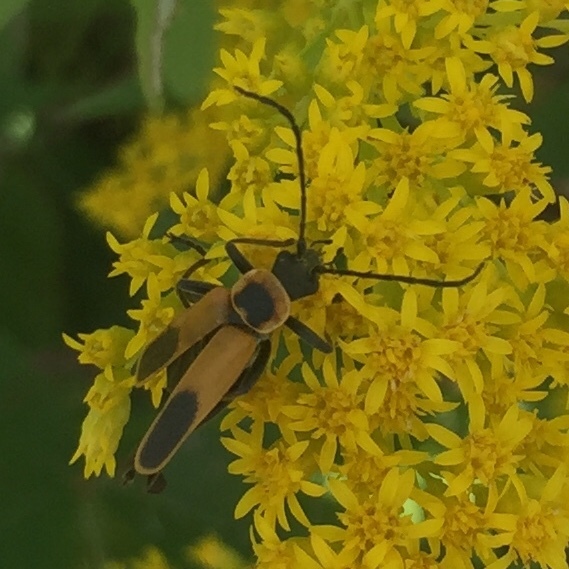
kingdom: Animalia
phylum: Arthropoda
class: Insecta
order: Coleoptera
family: Cantharidae
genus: Chauliognathus
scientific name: Chauliognathus pensylvanicus
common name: Goldenrod soldier beetle
